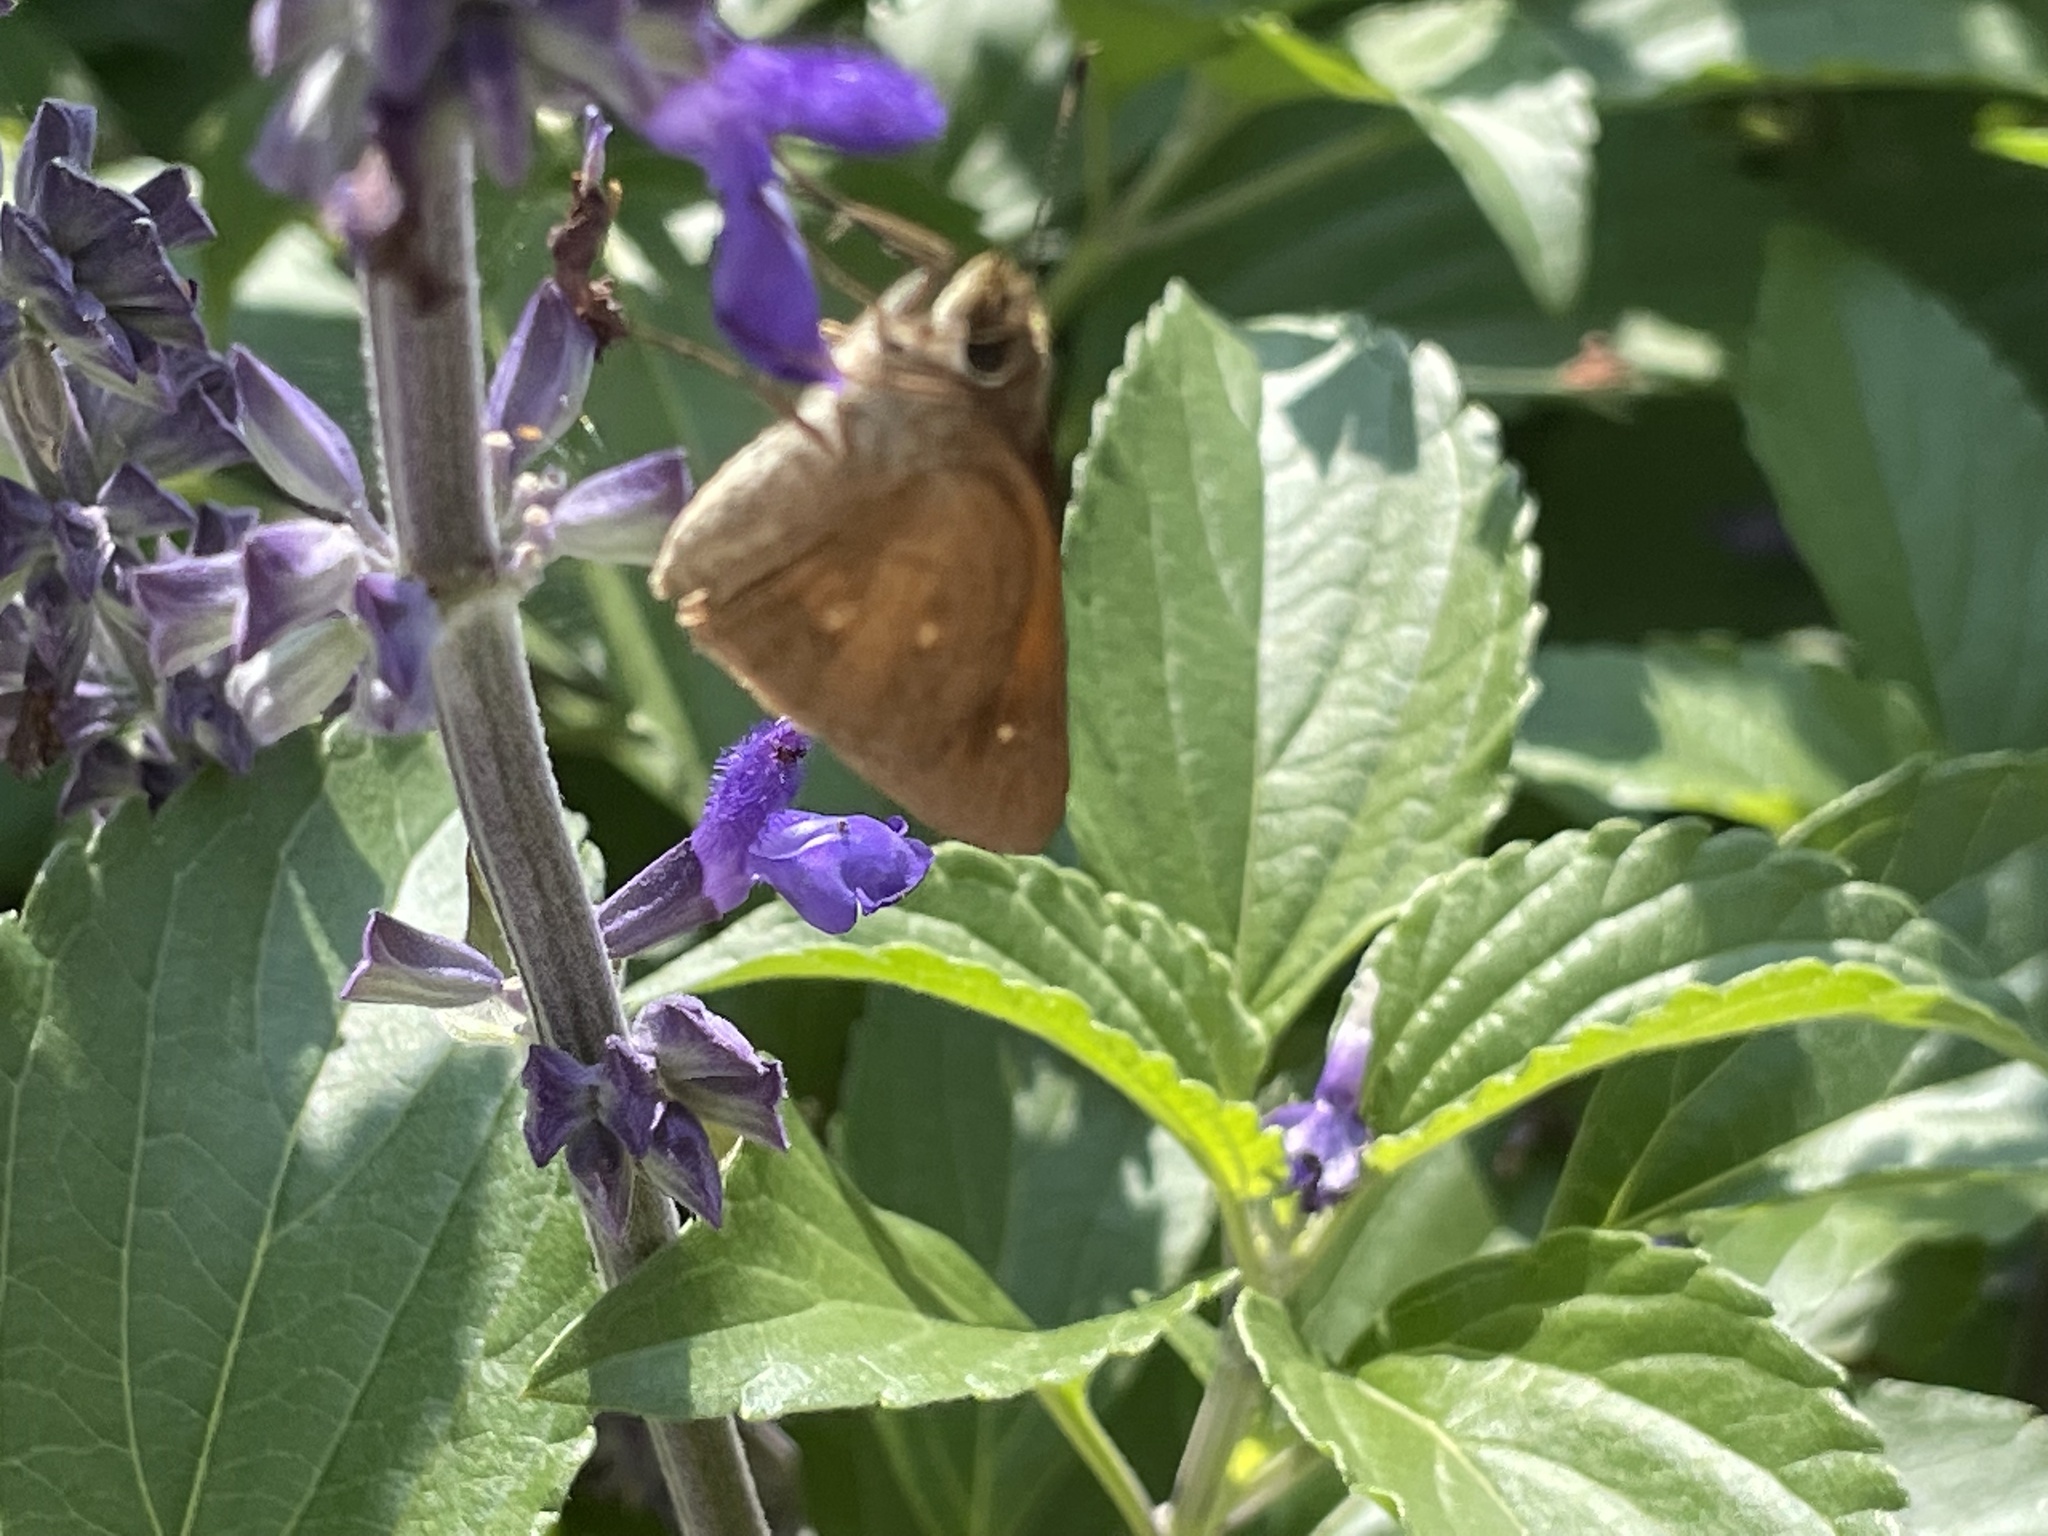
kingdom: Animalia
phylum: Arthropoda
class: Insecta
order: Lepidoptera
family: Hesperiidae
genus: Poanes
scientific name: Poanes viator
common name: Broad-winged skipper
